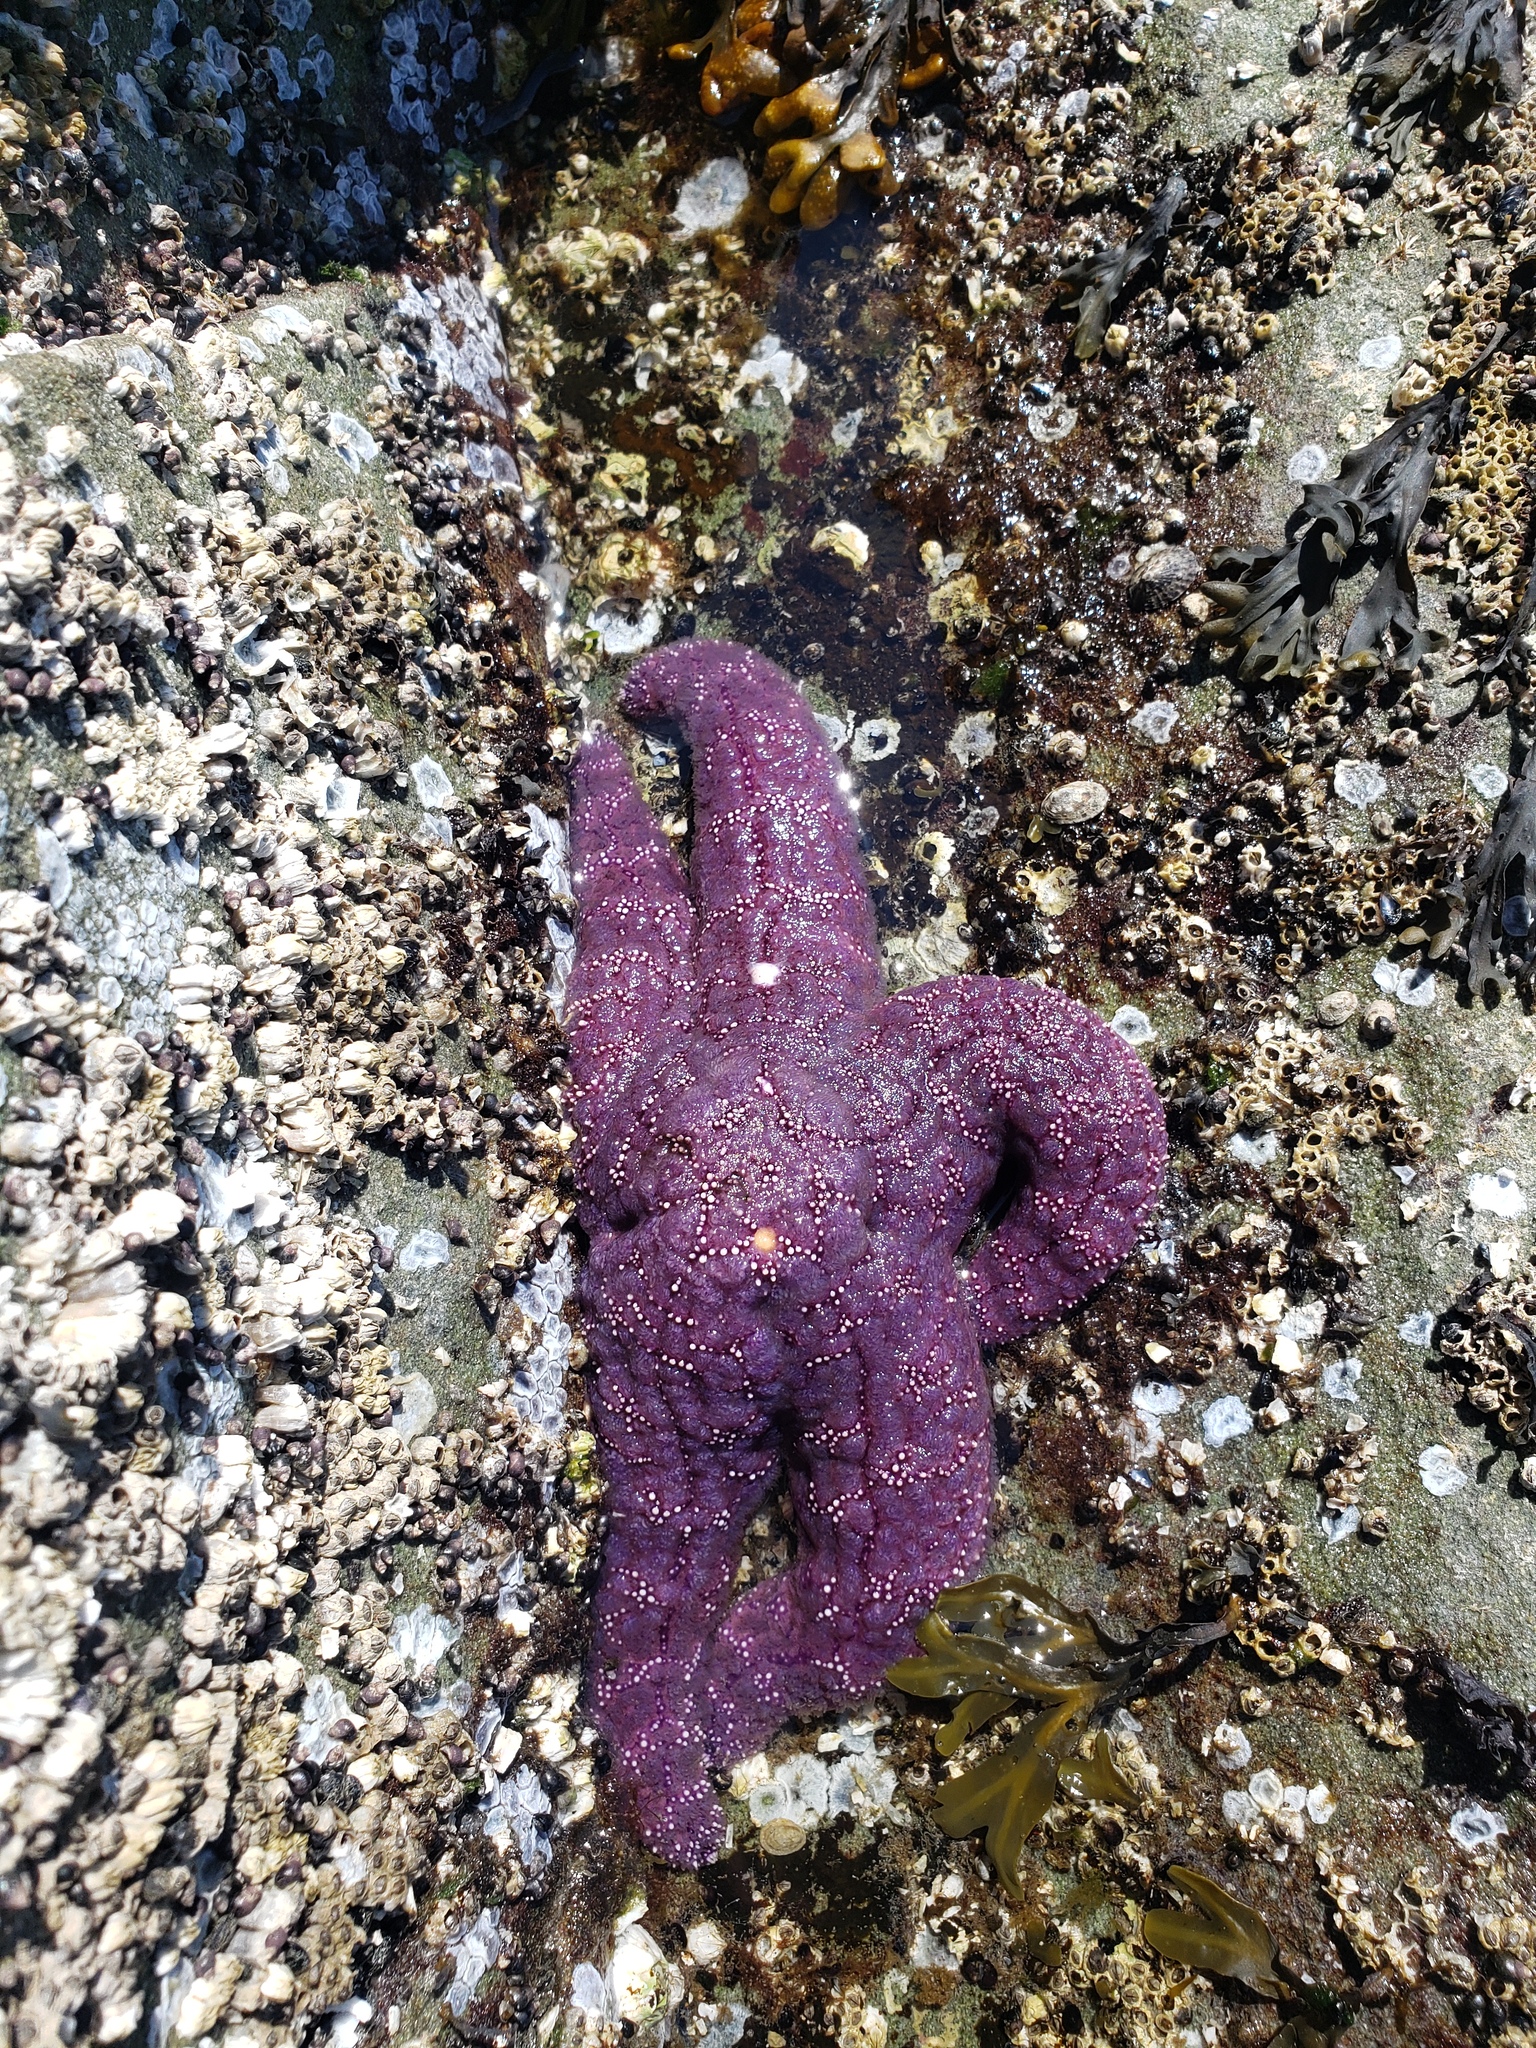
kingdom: Animalia
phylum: Echinodermata
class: Asteroidea
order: Forcipulatida
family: Asteriidae
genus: Pisaster
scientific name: Pisaster ochraceus
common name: Ochre stars
